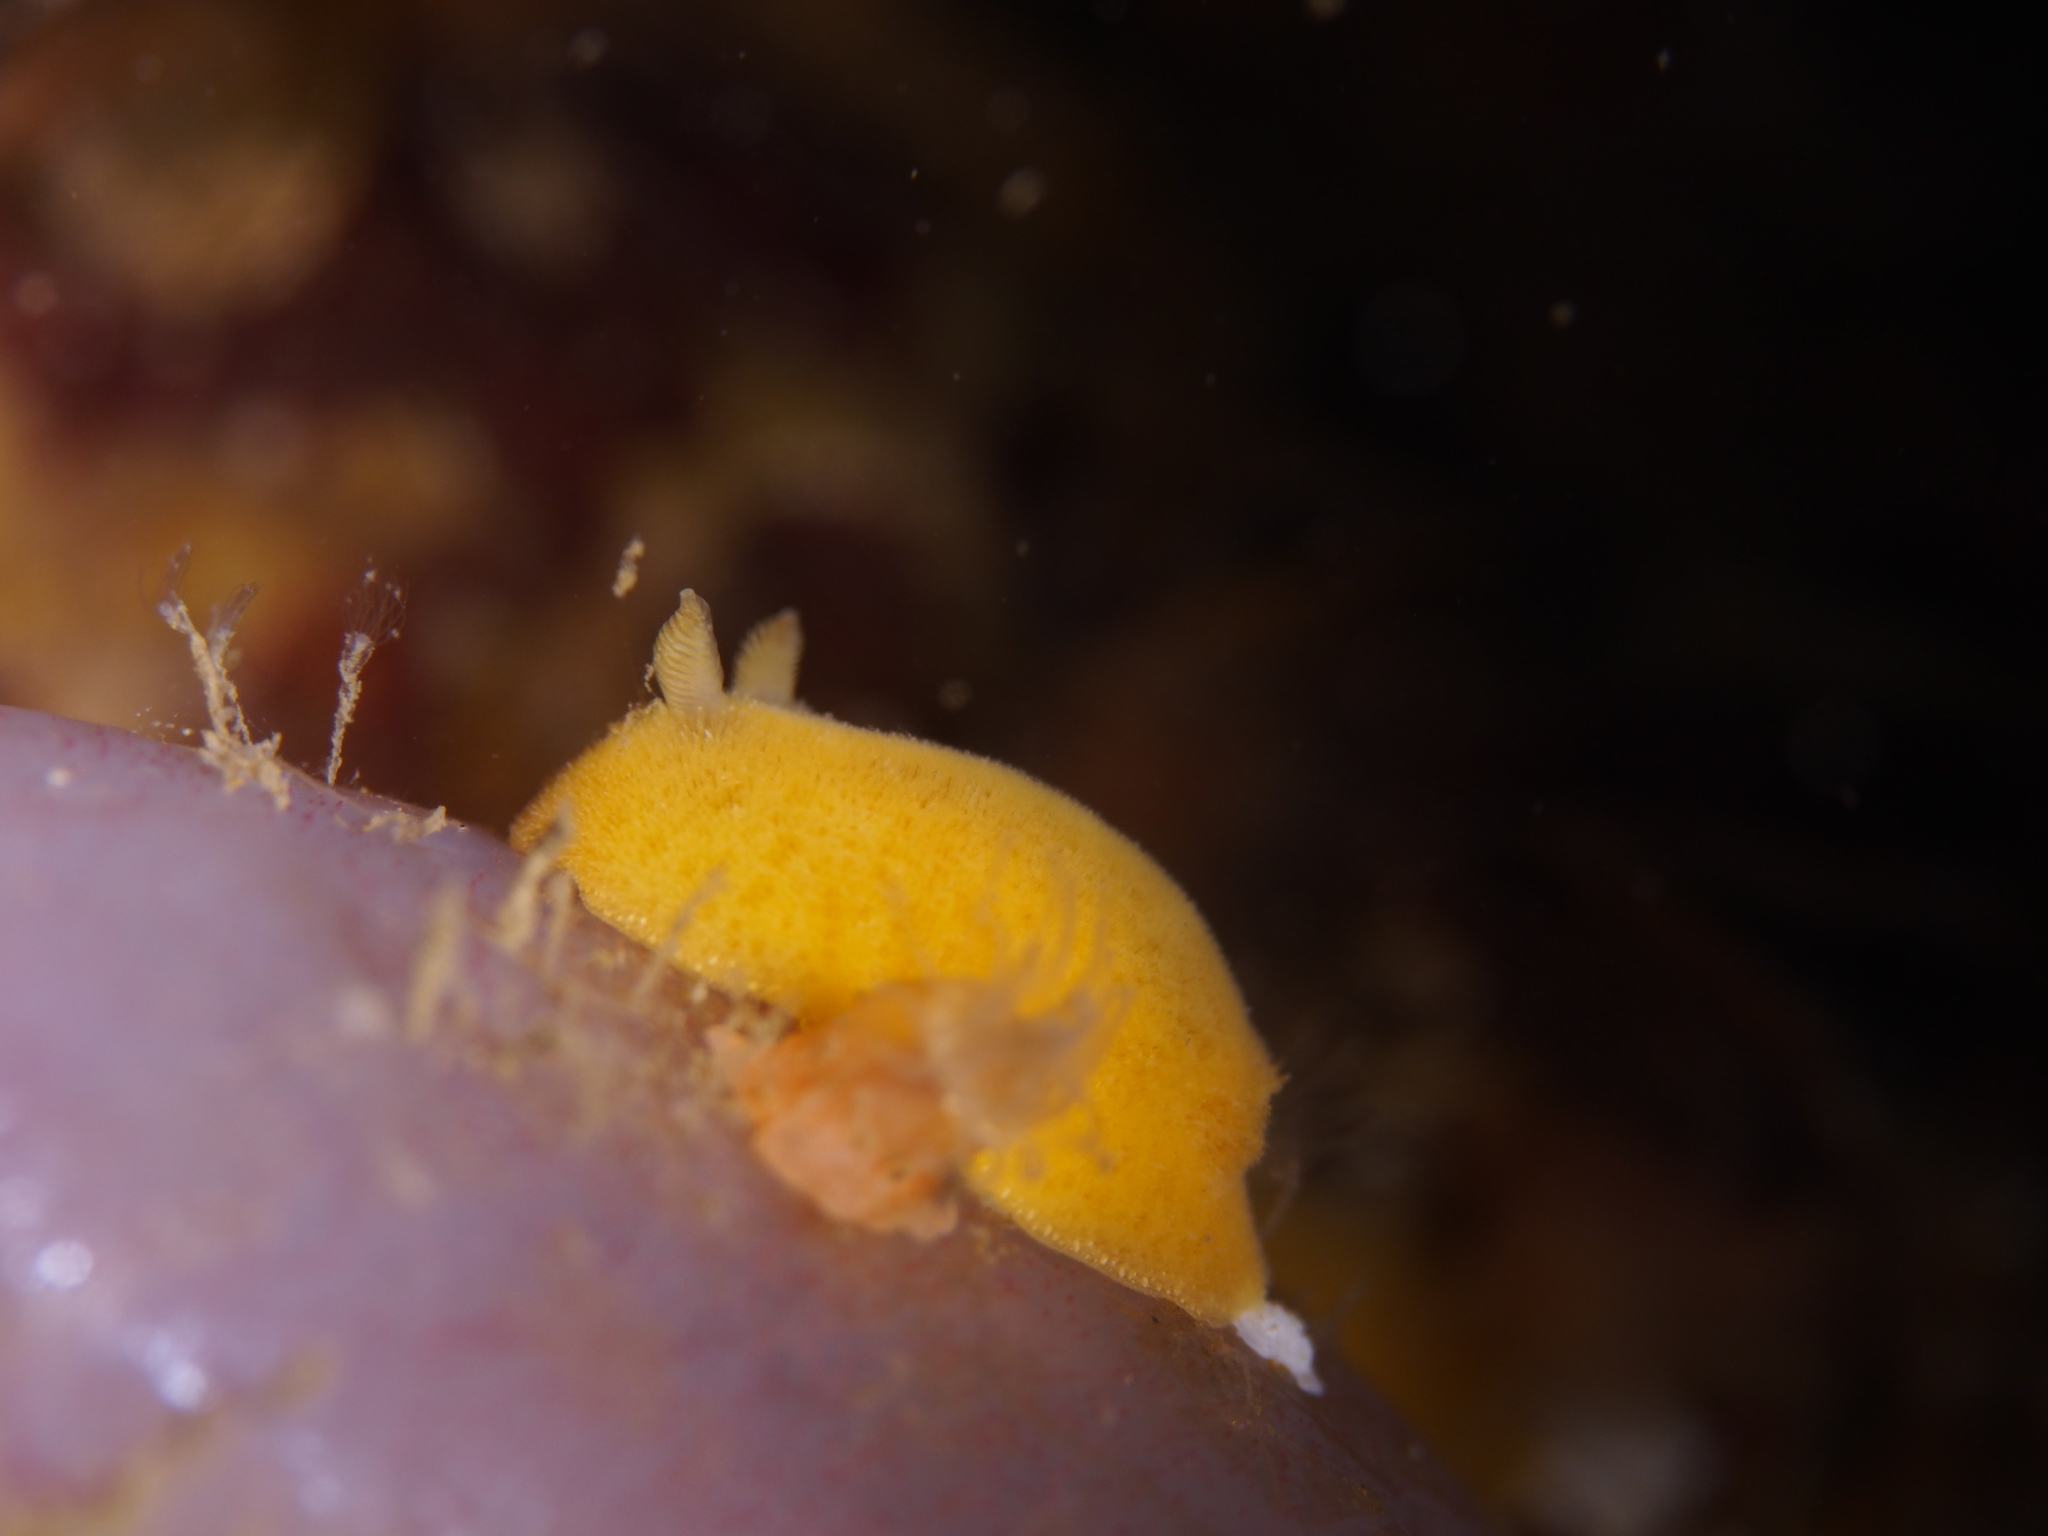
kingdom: Animalia
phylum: Mollusca
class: Gastropoda
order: Nudibranchia
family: Discodorididae
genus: Jorunna
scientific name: Jorunna tomentosa
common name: Grey sea slug
